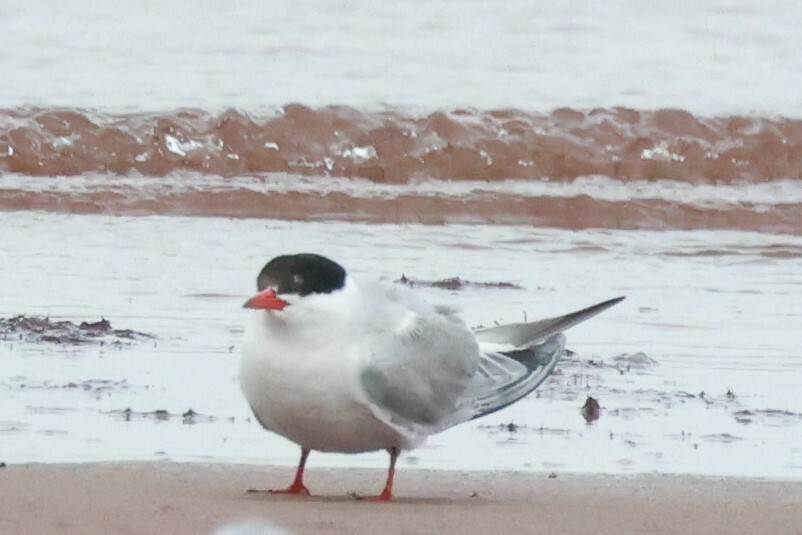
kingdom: Animalia
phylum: Chordata
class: Aves
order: Charadriiformes
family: Laridae
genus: Sterna
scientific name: Sterna hirundo
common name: Common tern
